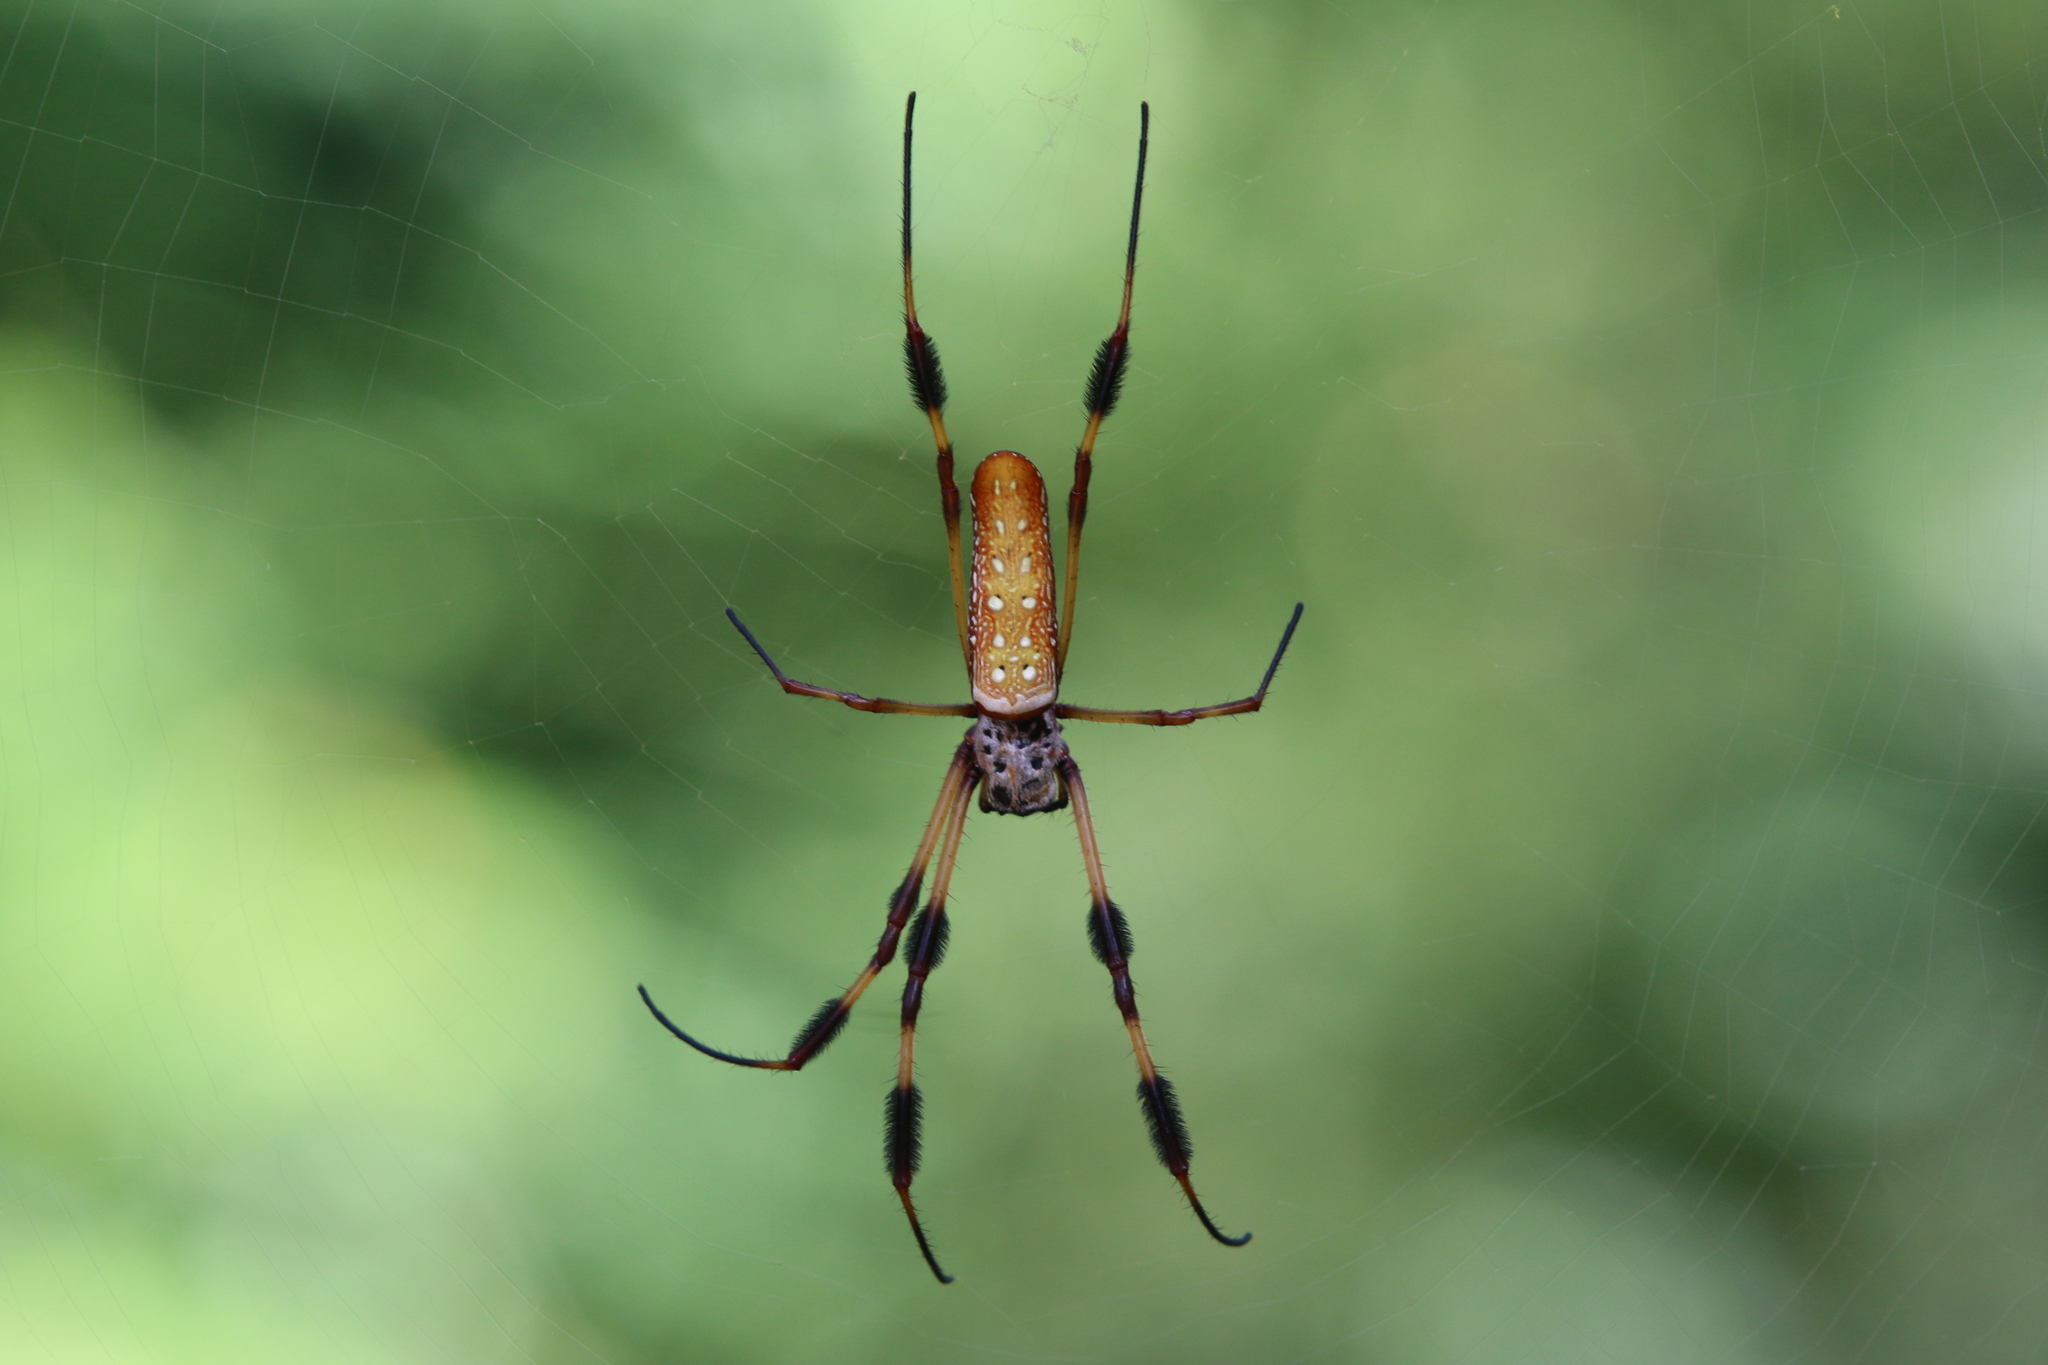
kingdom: Animalia
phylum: Arthropoda
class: Arachnida
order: Araneae
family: Araneidae
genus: Trichonephila
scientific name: Trichonephila clavipes
